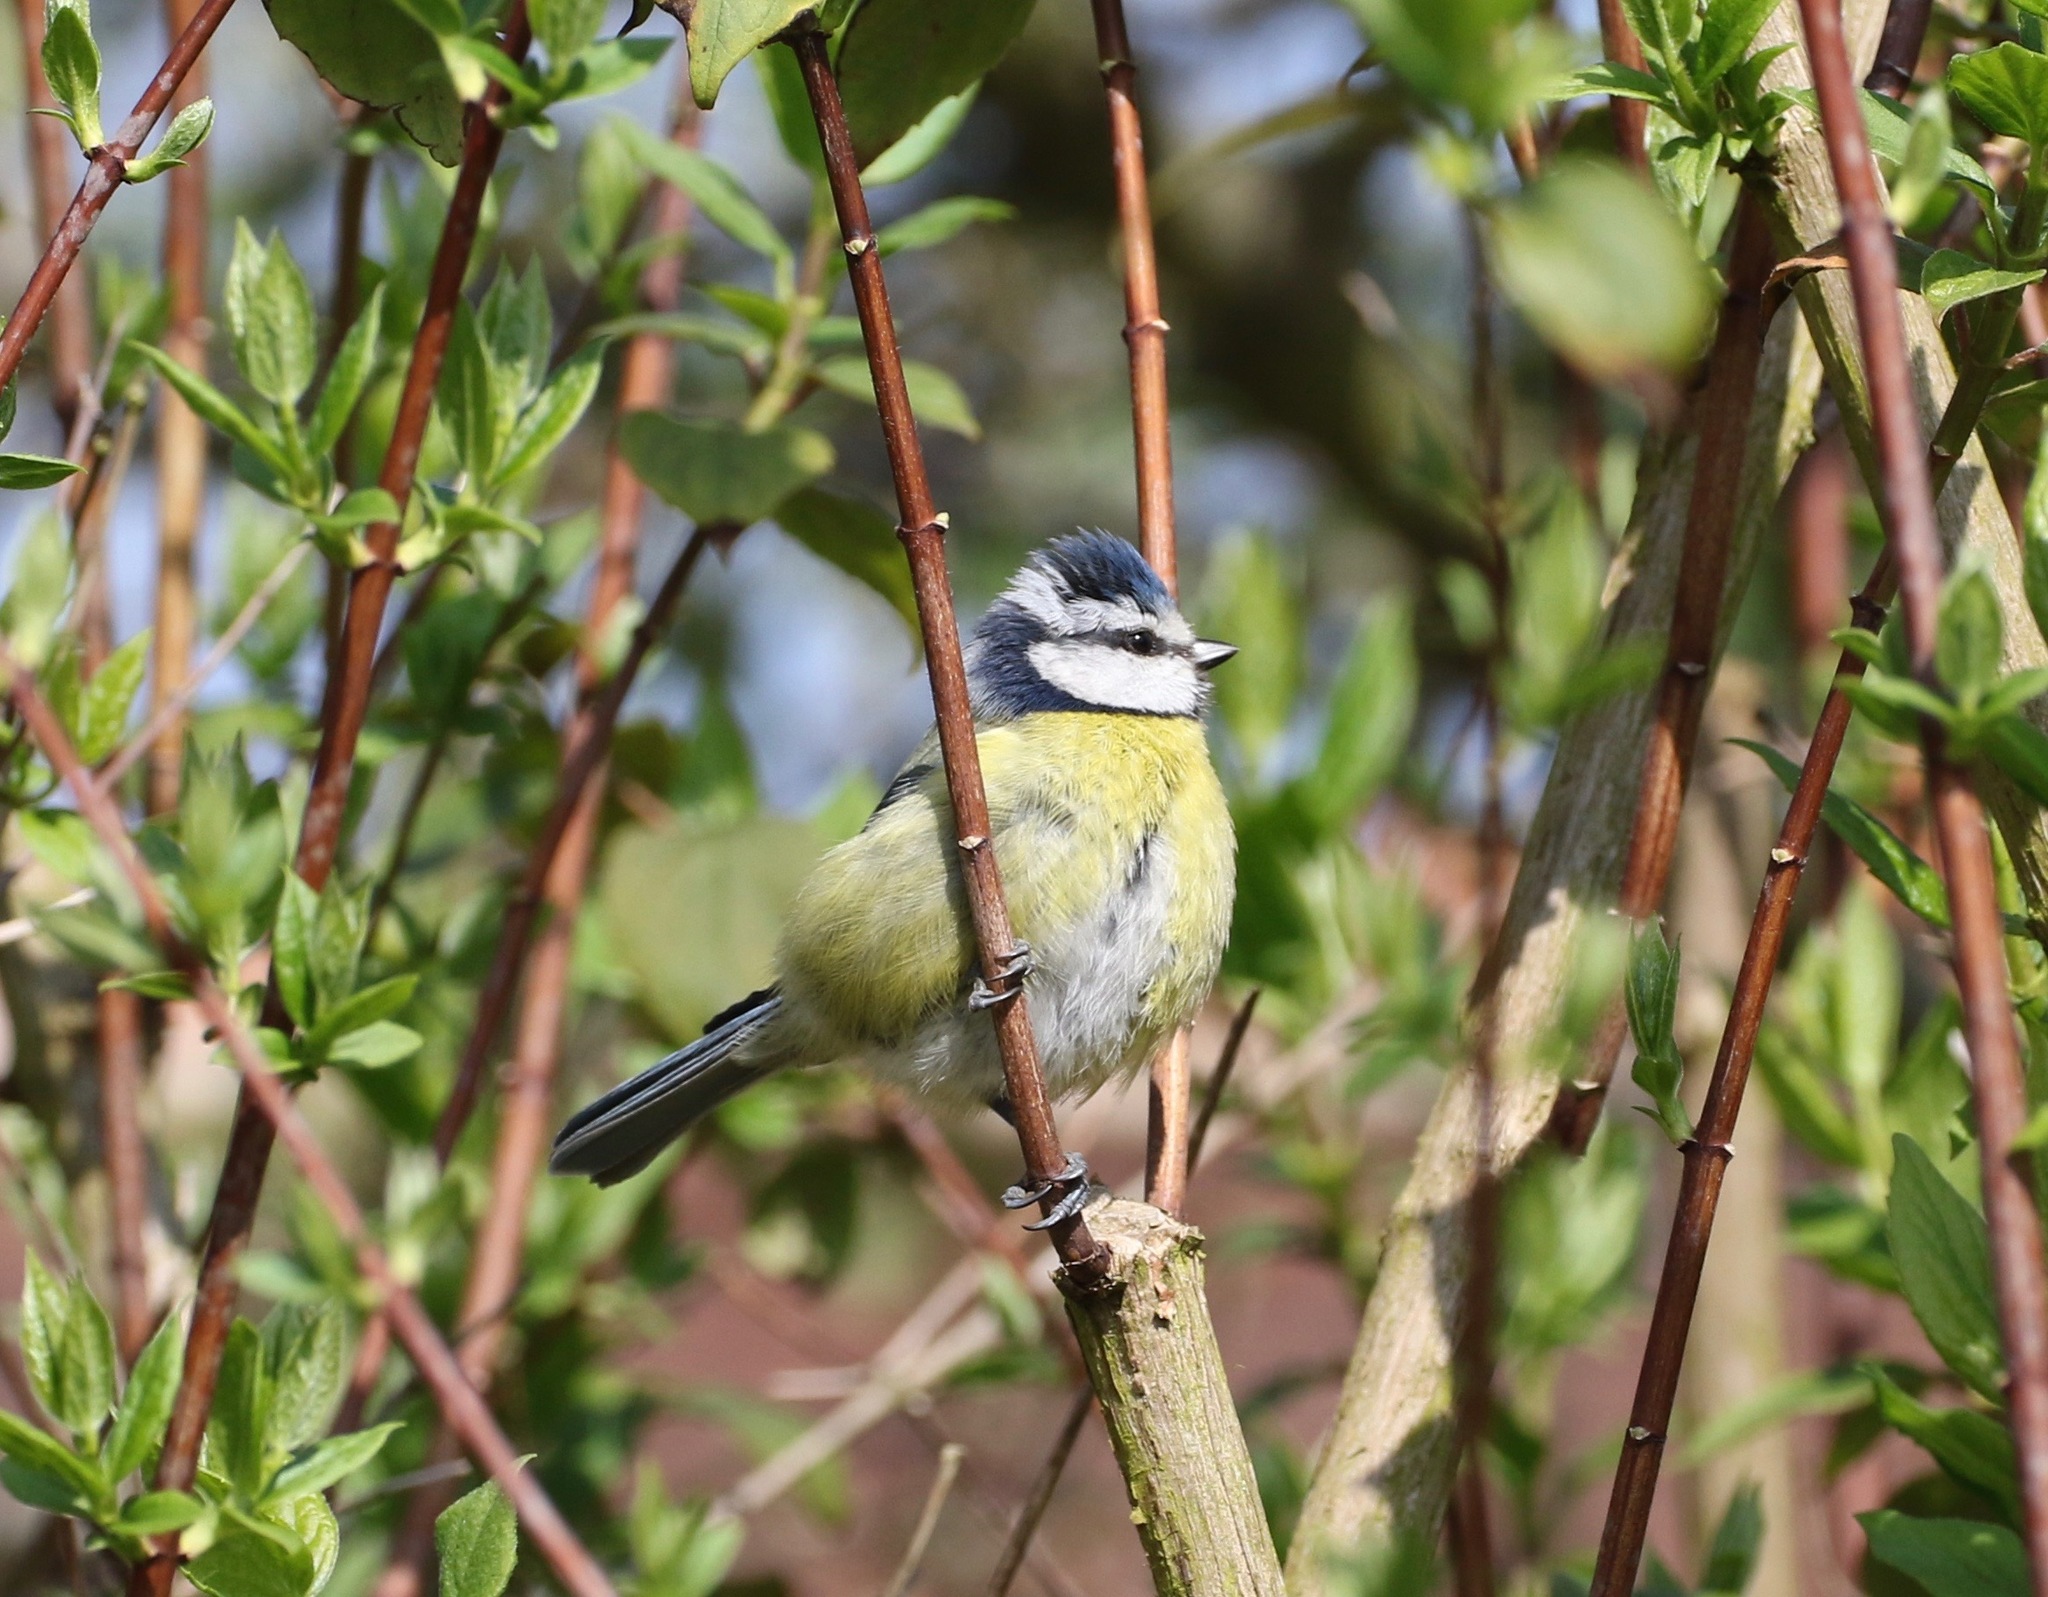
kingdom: Animalia
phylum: Chordata
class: Aves
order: Passeriformes
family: Paridae
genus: Cyanistes
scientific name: Cyanistes caeruleus
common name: Eurasian blue tit
